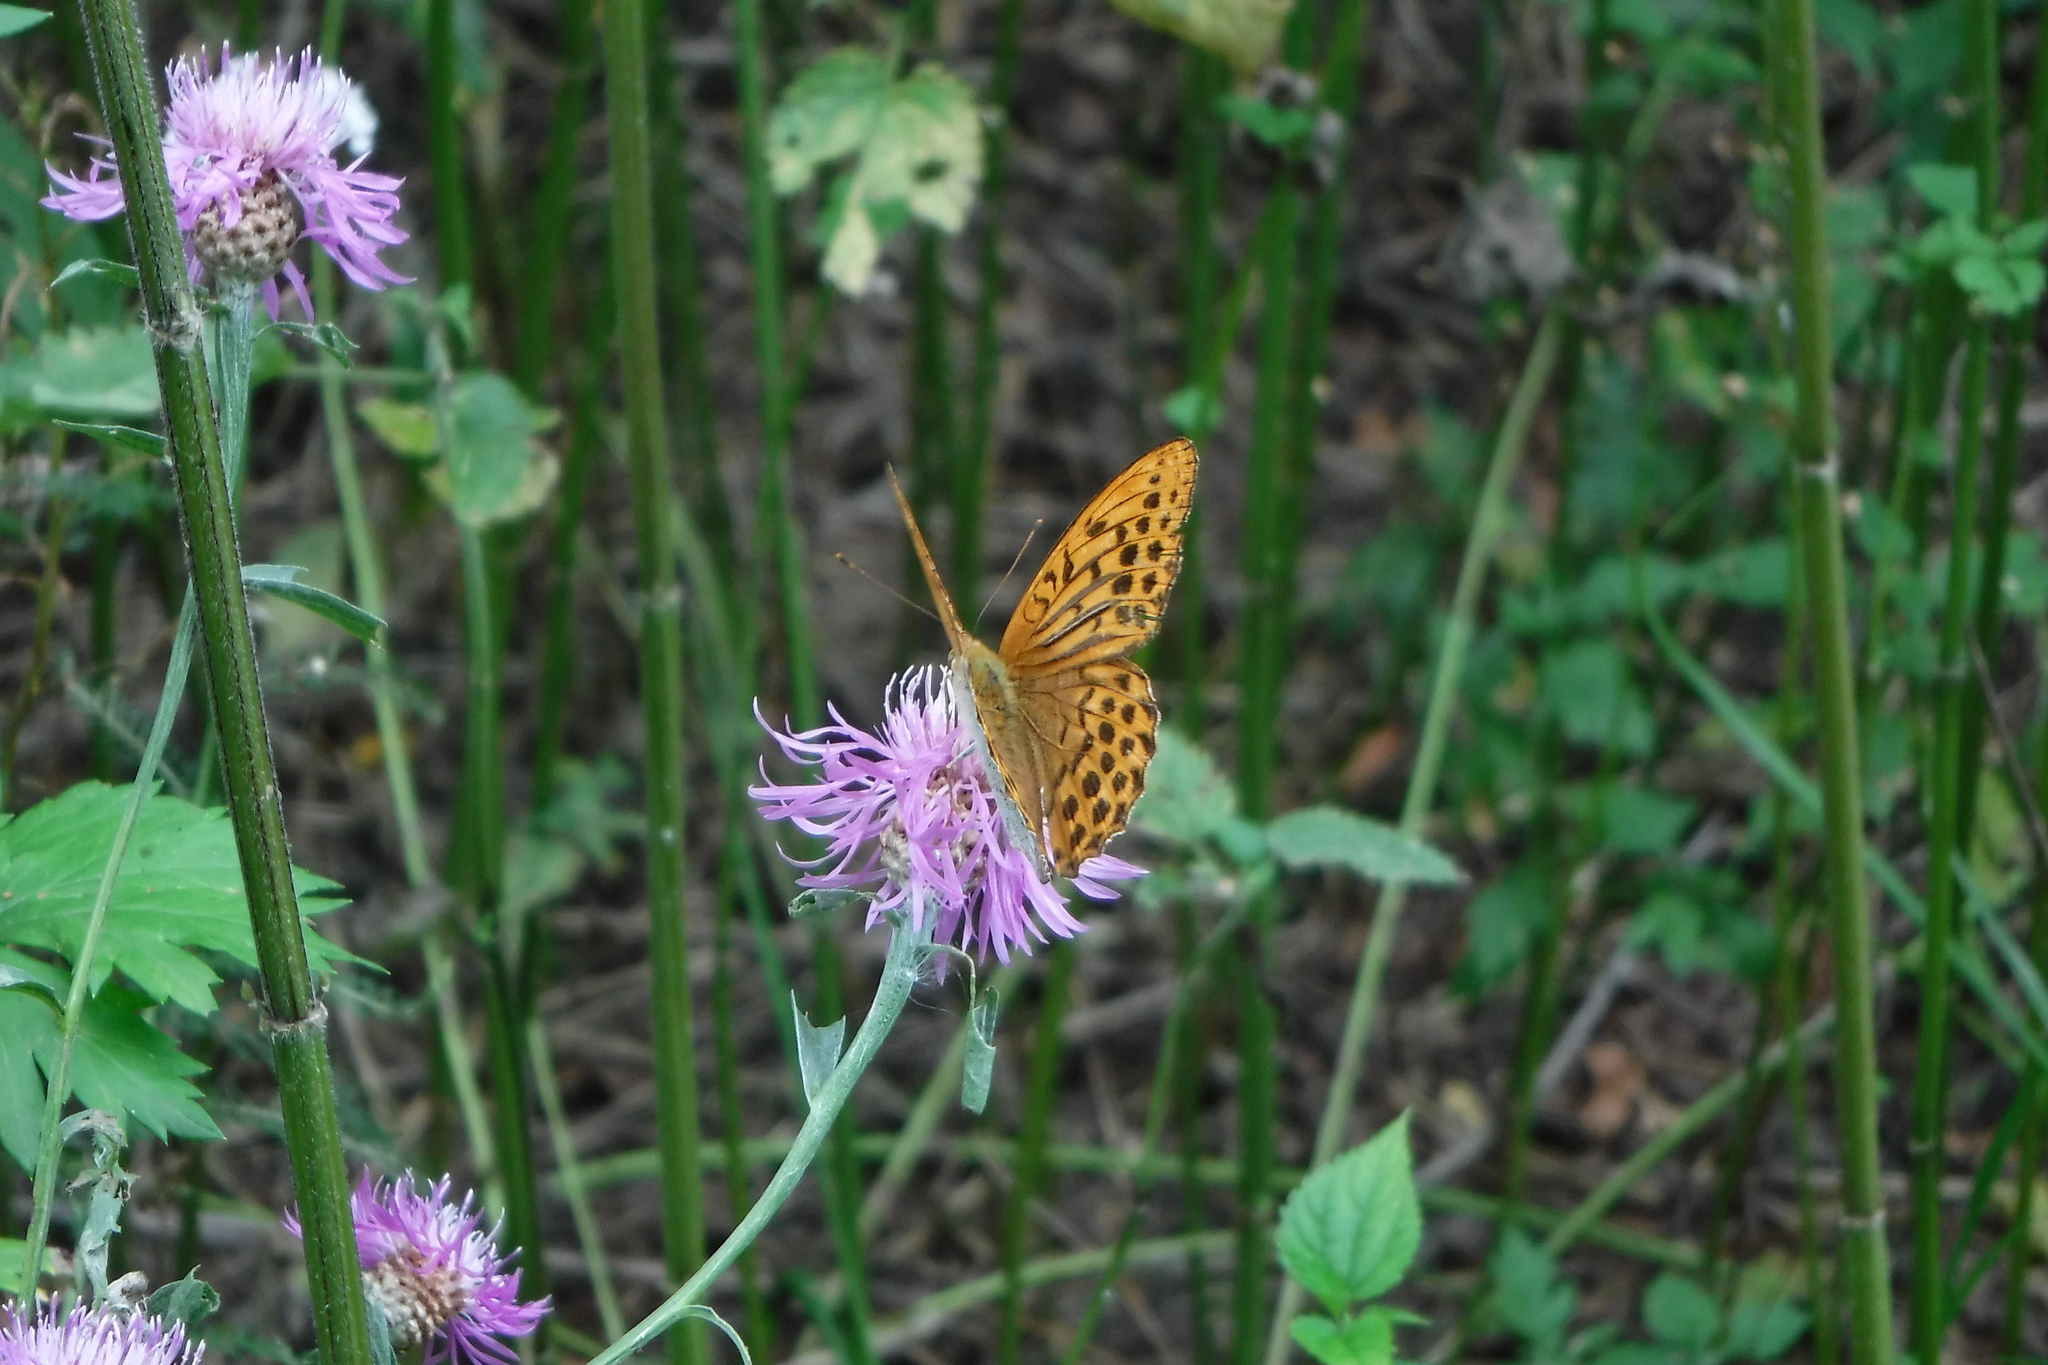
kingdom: Animalia
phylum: Arthropoda
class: Insecta
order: Lepidoptera
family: Nymphalidae
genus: Argynnis
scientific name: Argynnis paphia
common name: Silver-washed fritillary
